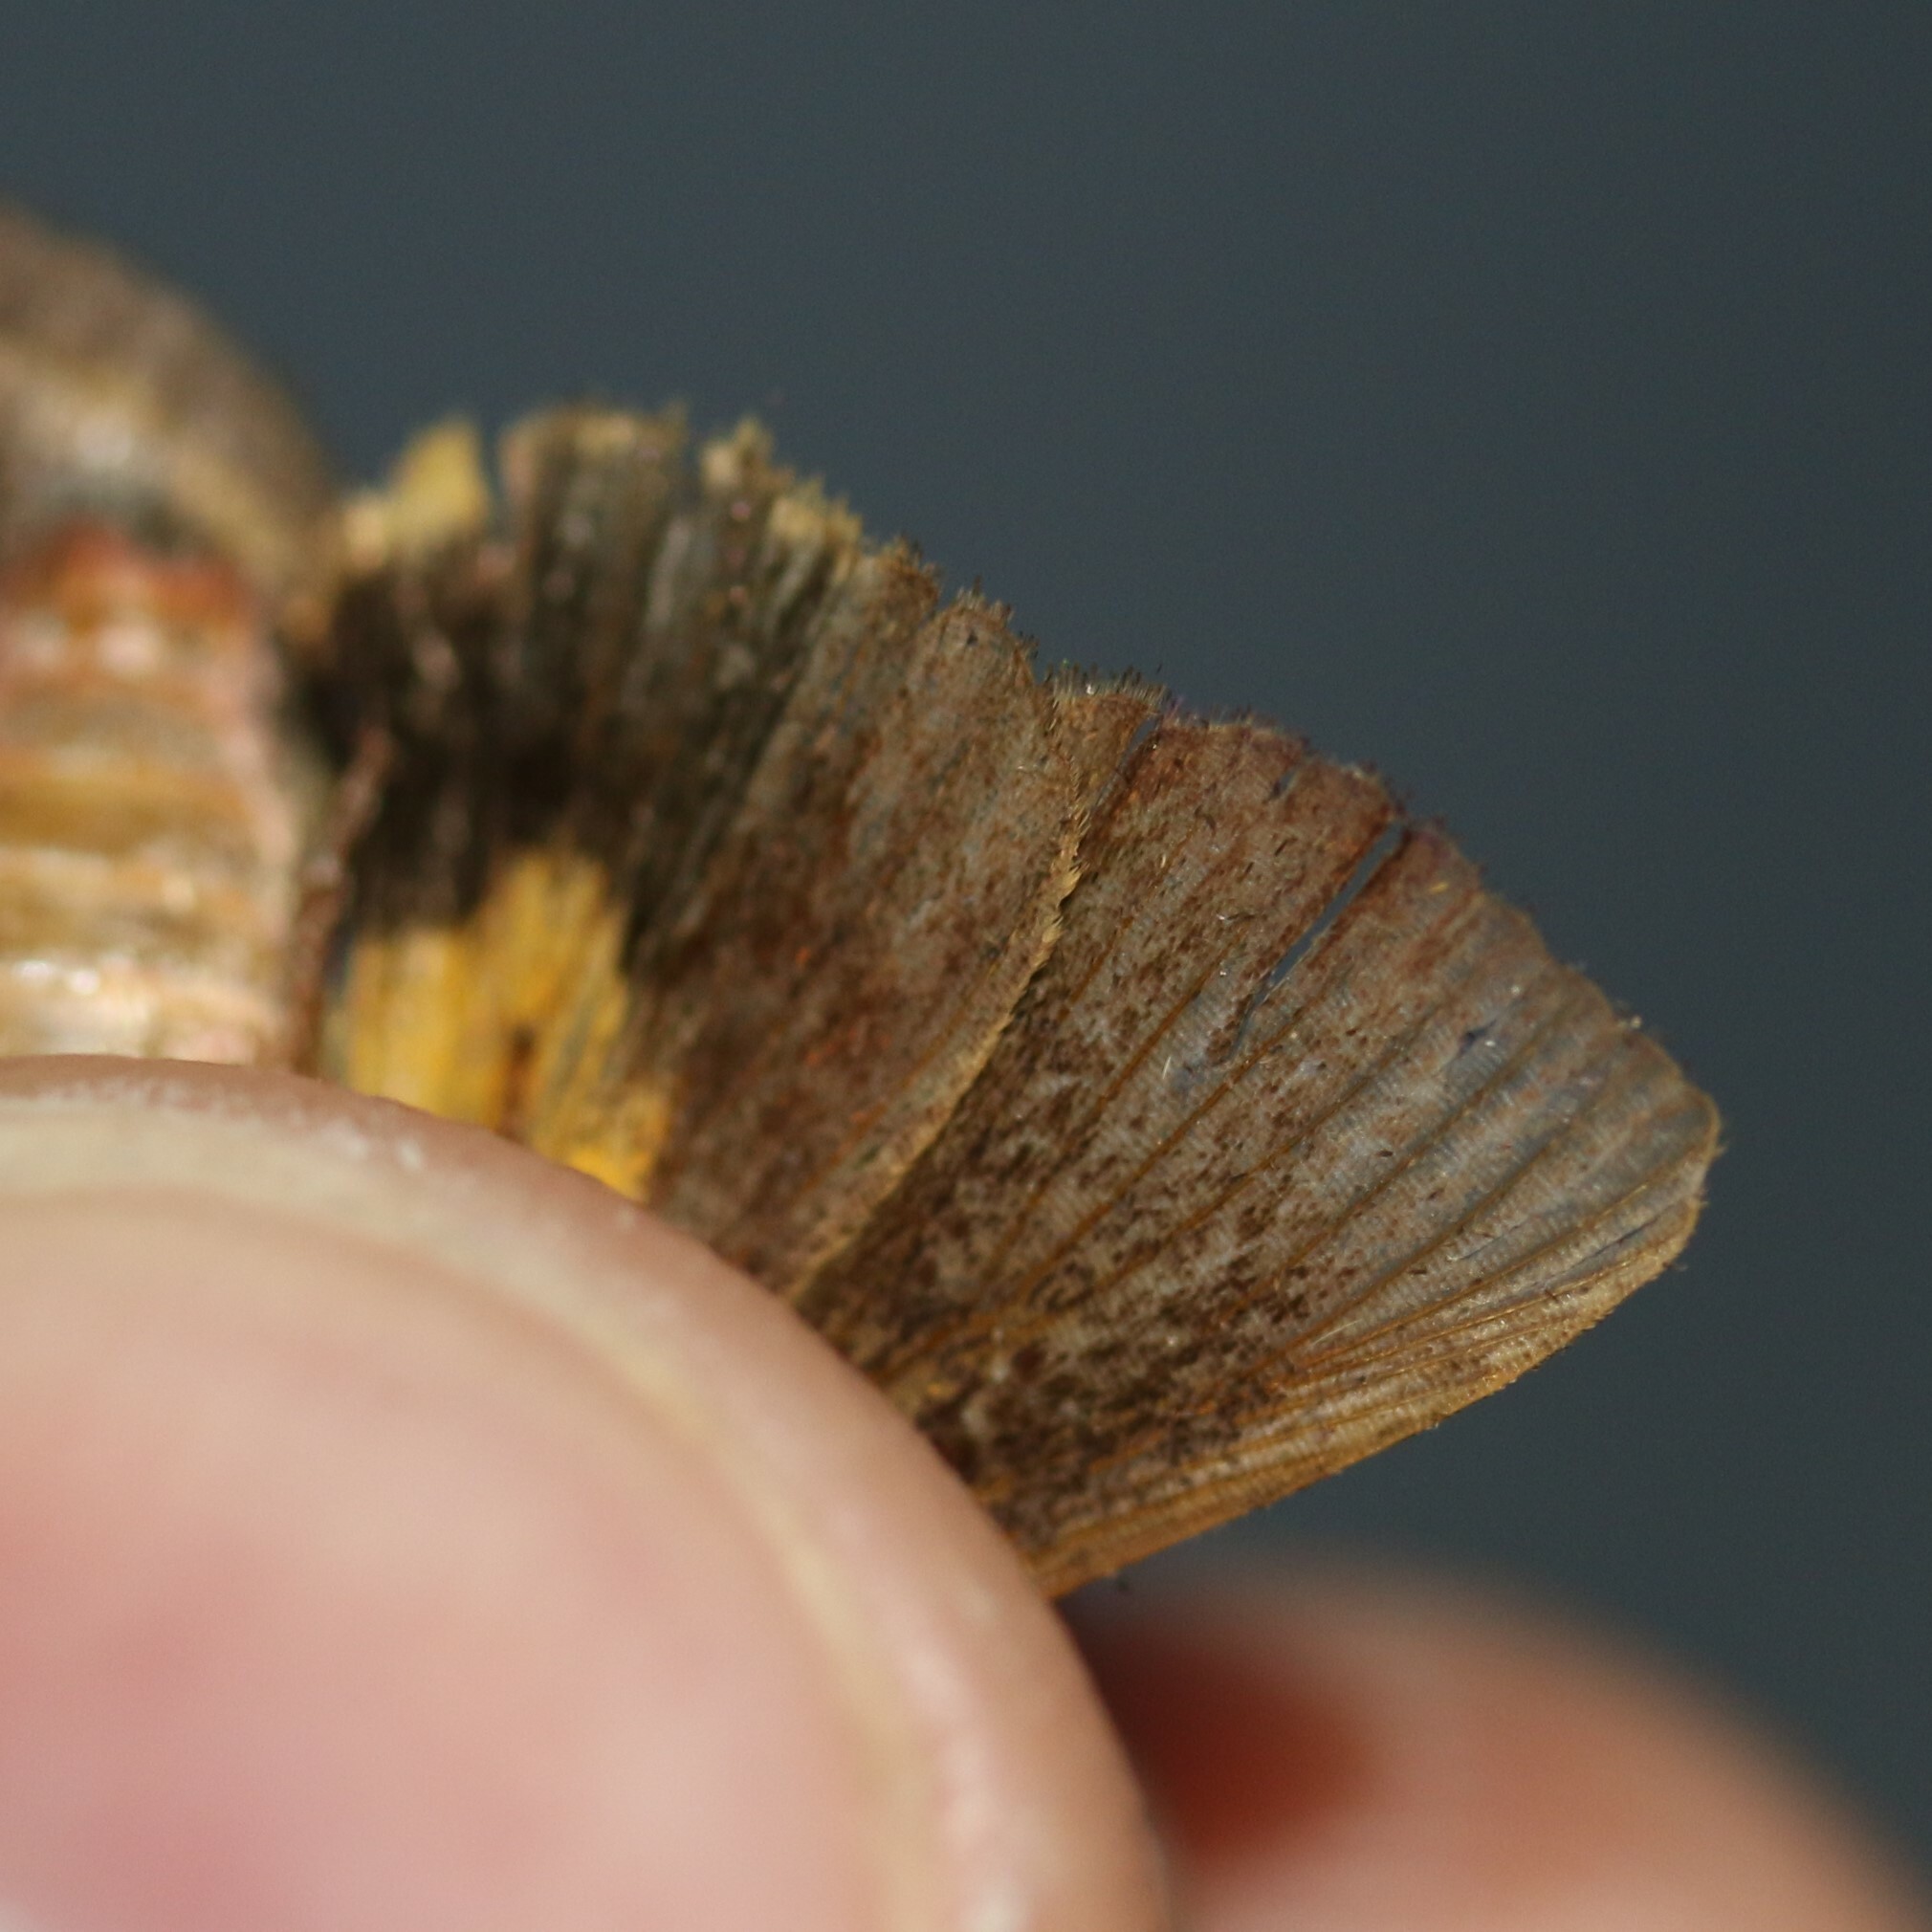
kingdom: Animalia
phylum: Arthropoda
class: Insecta
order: Lepidoptera
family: Noctuidae
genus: Noctua
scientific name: Noctua
